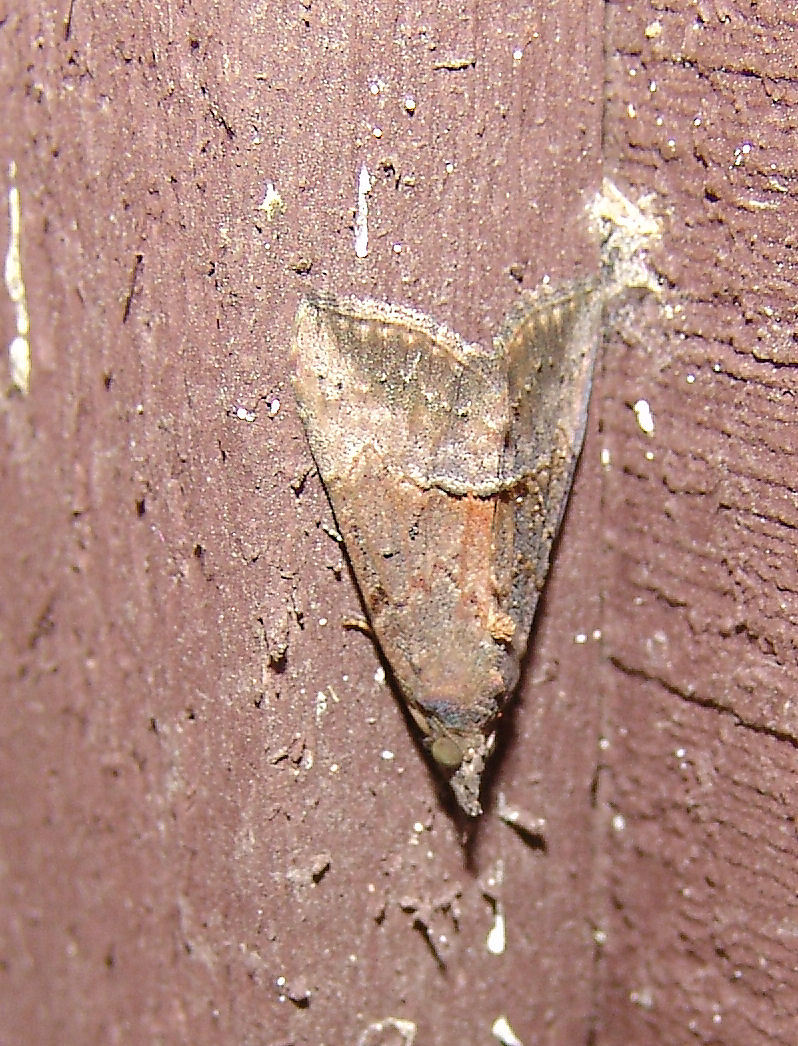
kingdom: Animalia
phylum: Arthropoda
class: Insecta
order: Lepidoptera
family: Erebidae
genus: Hypena
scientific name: Hypena scabra
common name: Green cloverworm
